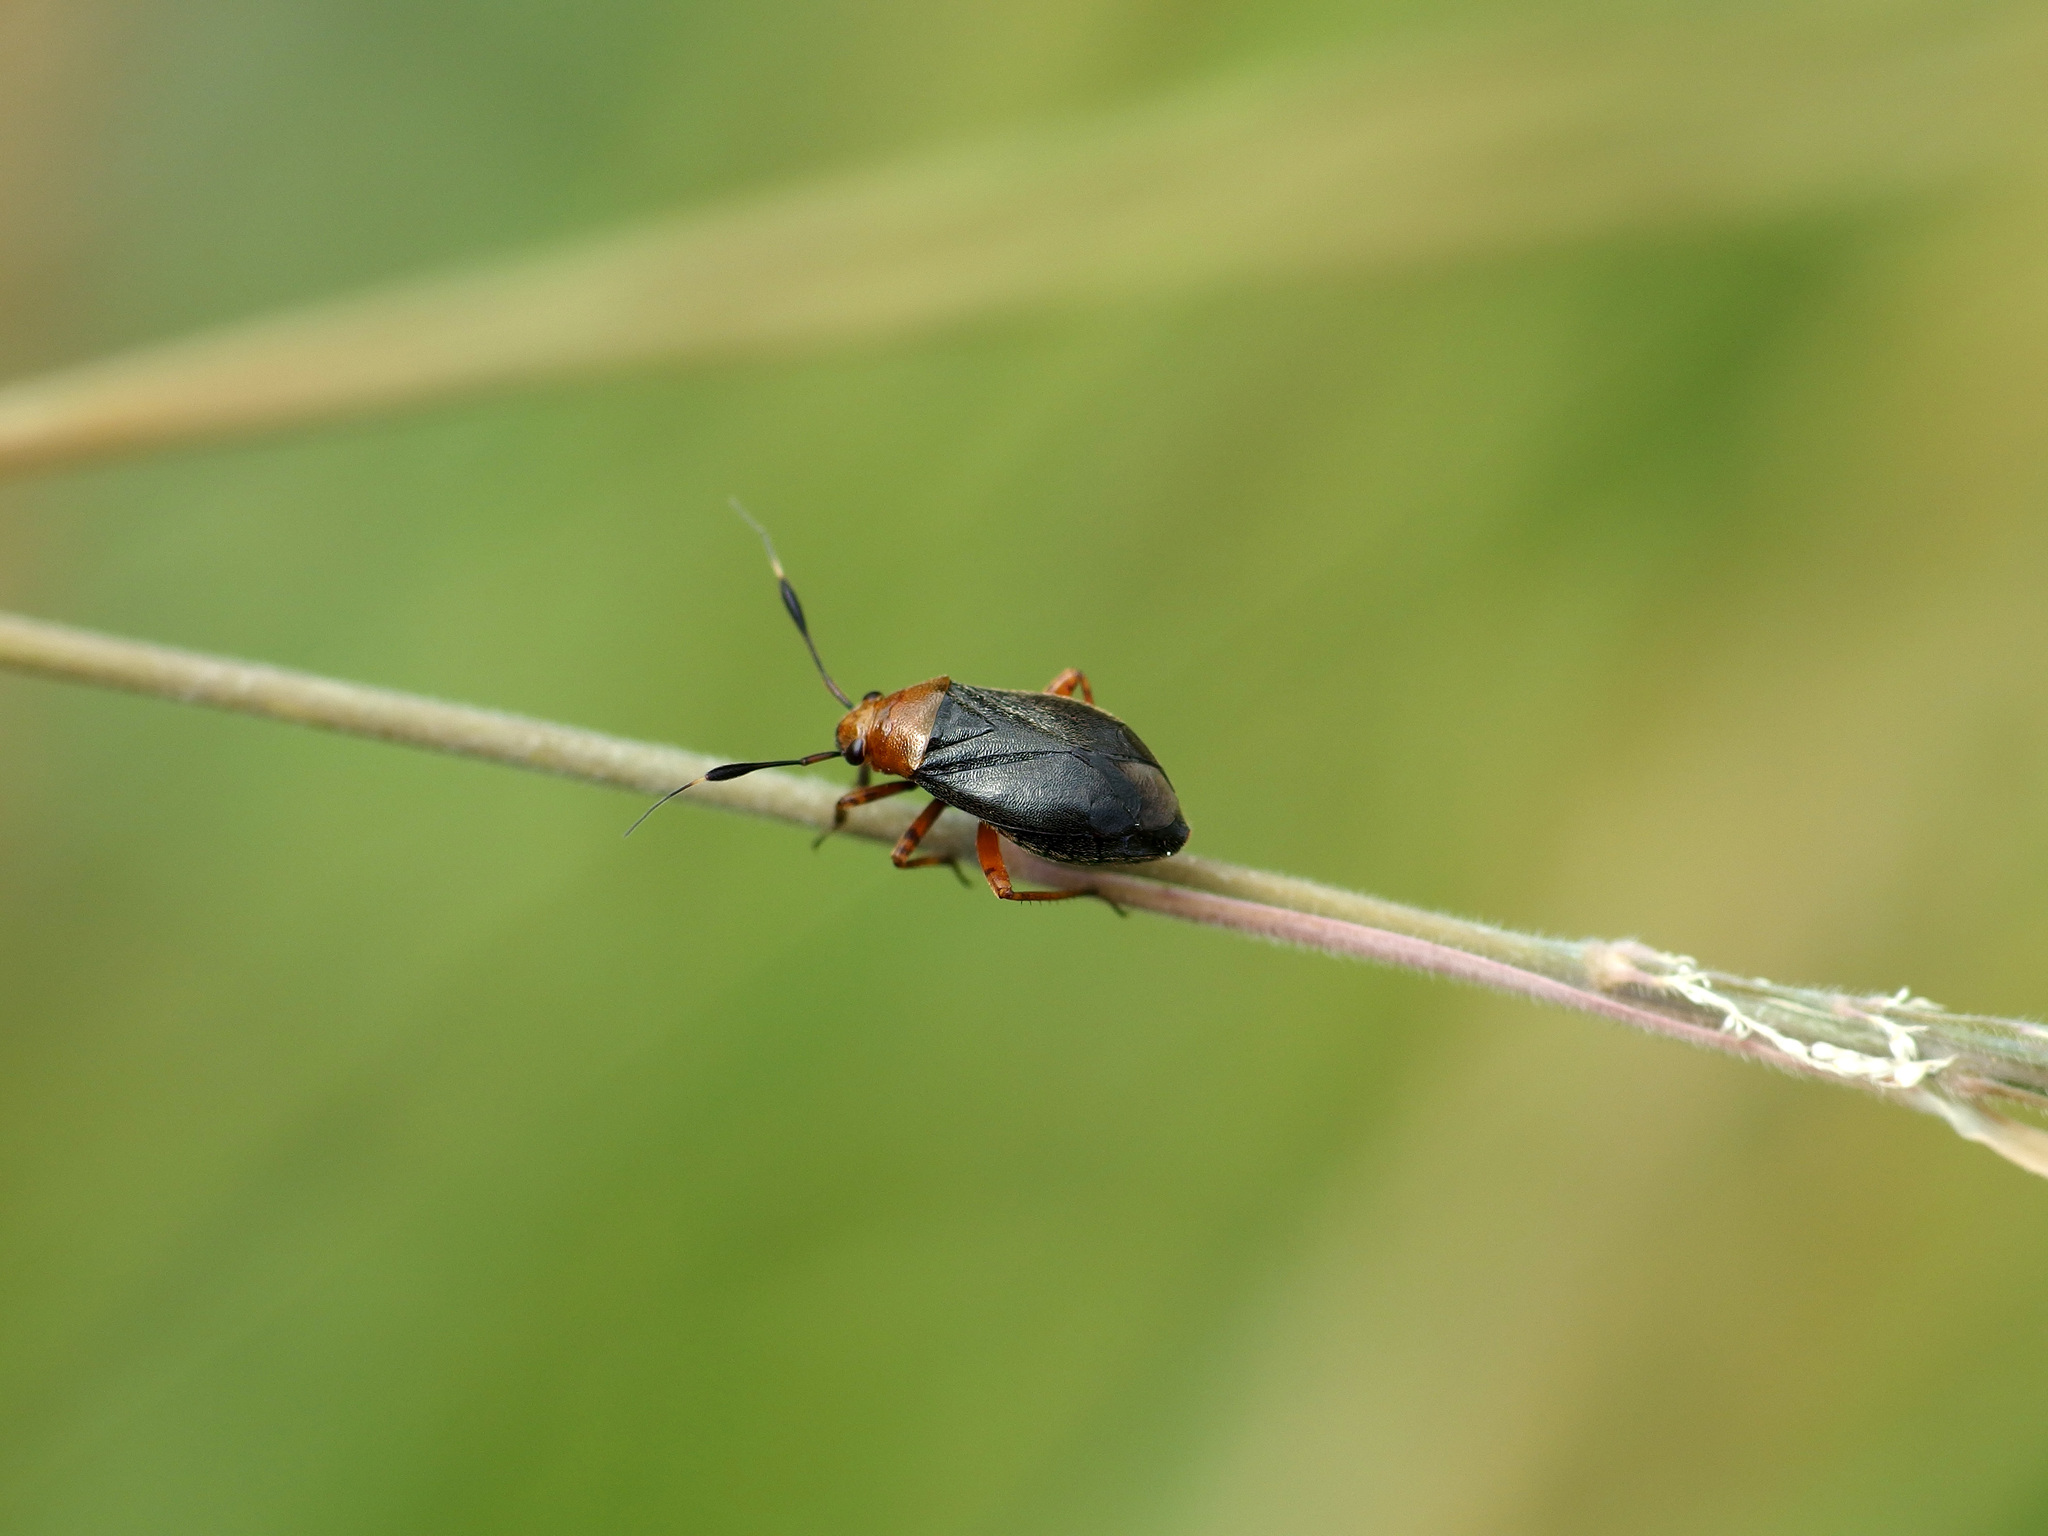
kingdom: Animalia
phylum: Arthropoda
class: Insecta
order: Hemiptera
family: Miridae
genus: Capsus
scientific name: Capsus ater
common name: Black plant bug
